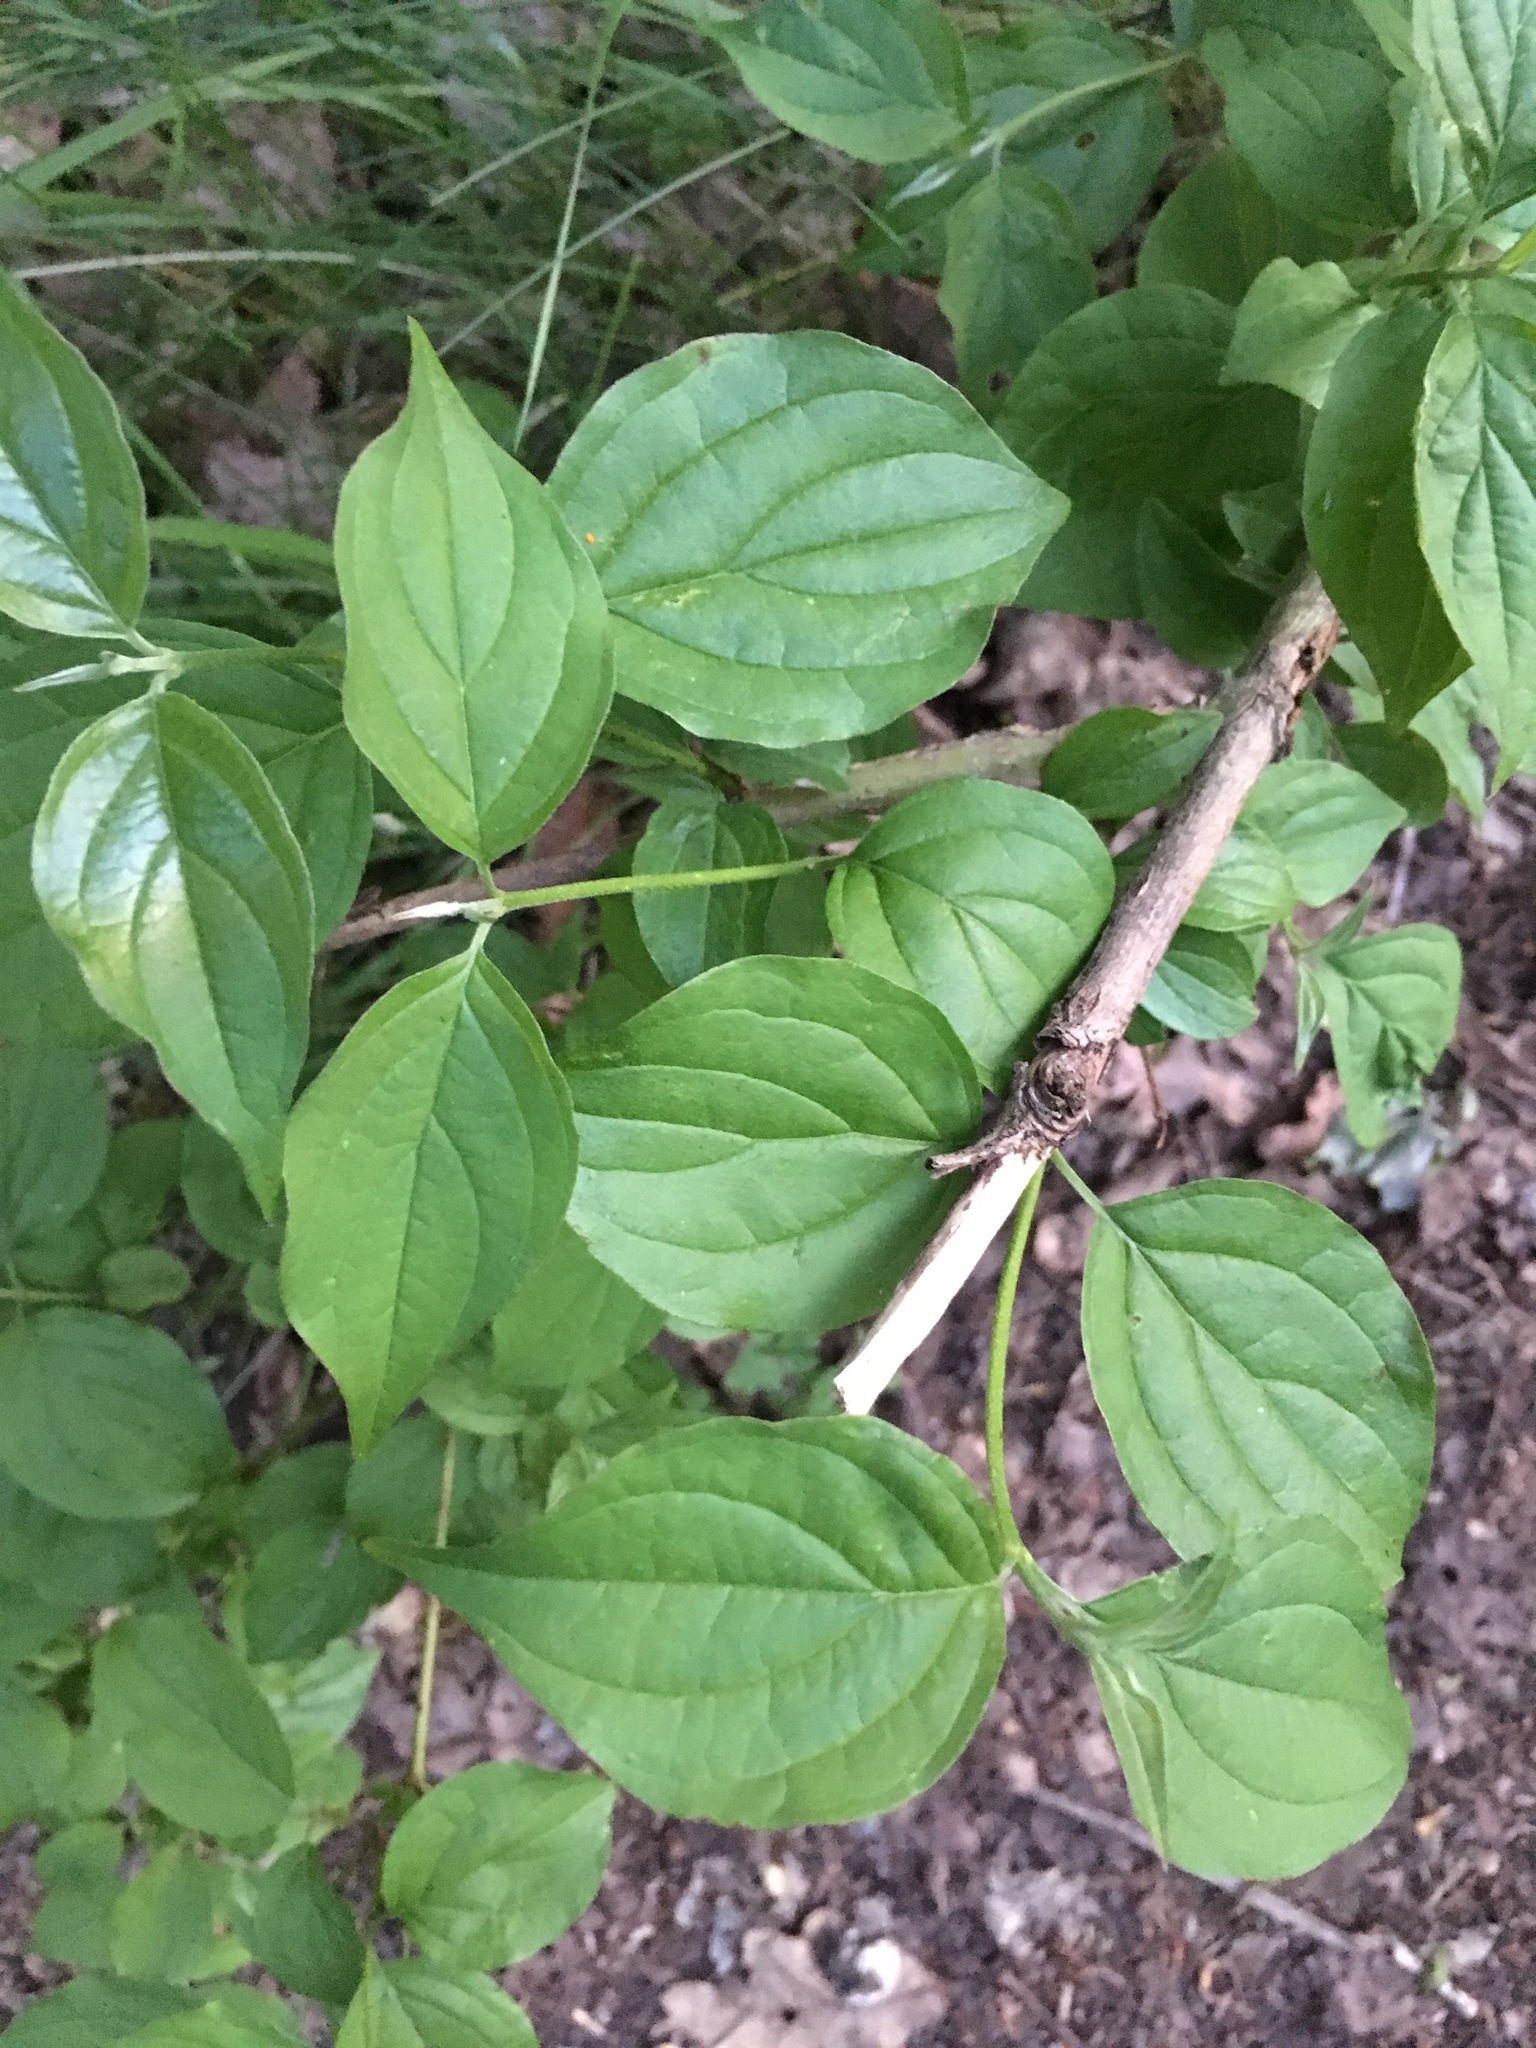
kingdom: Plantae
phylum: Tracheophyta
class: Magnoliopsida
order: Cornales
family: Cornaceae
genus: Cornus
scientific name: Cornus sanguinea
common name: Dogwood
